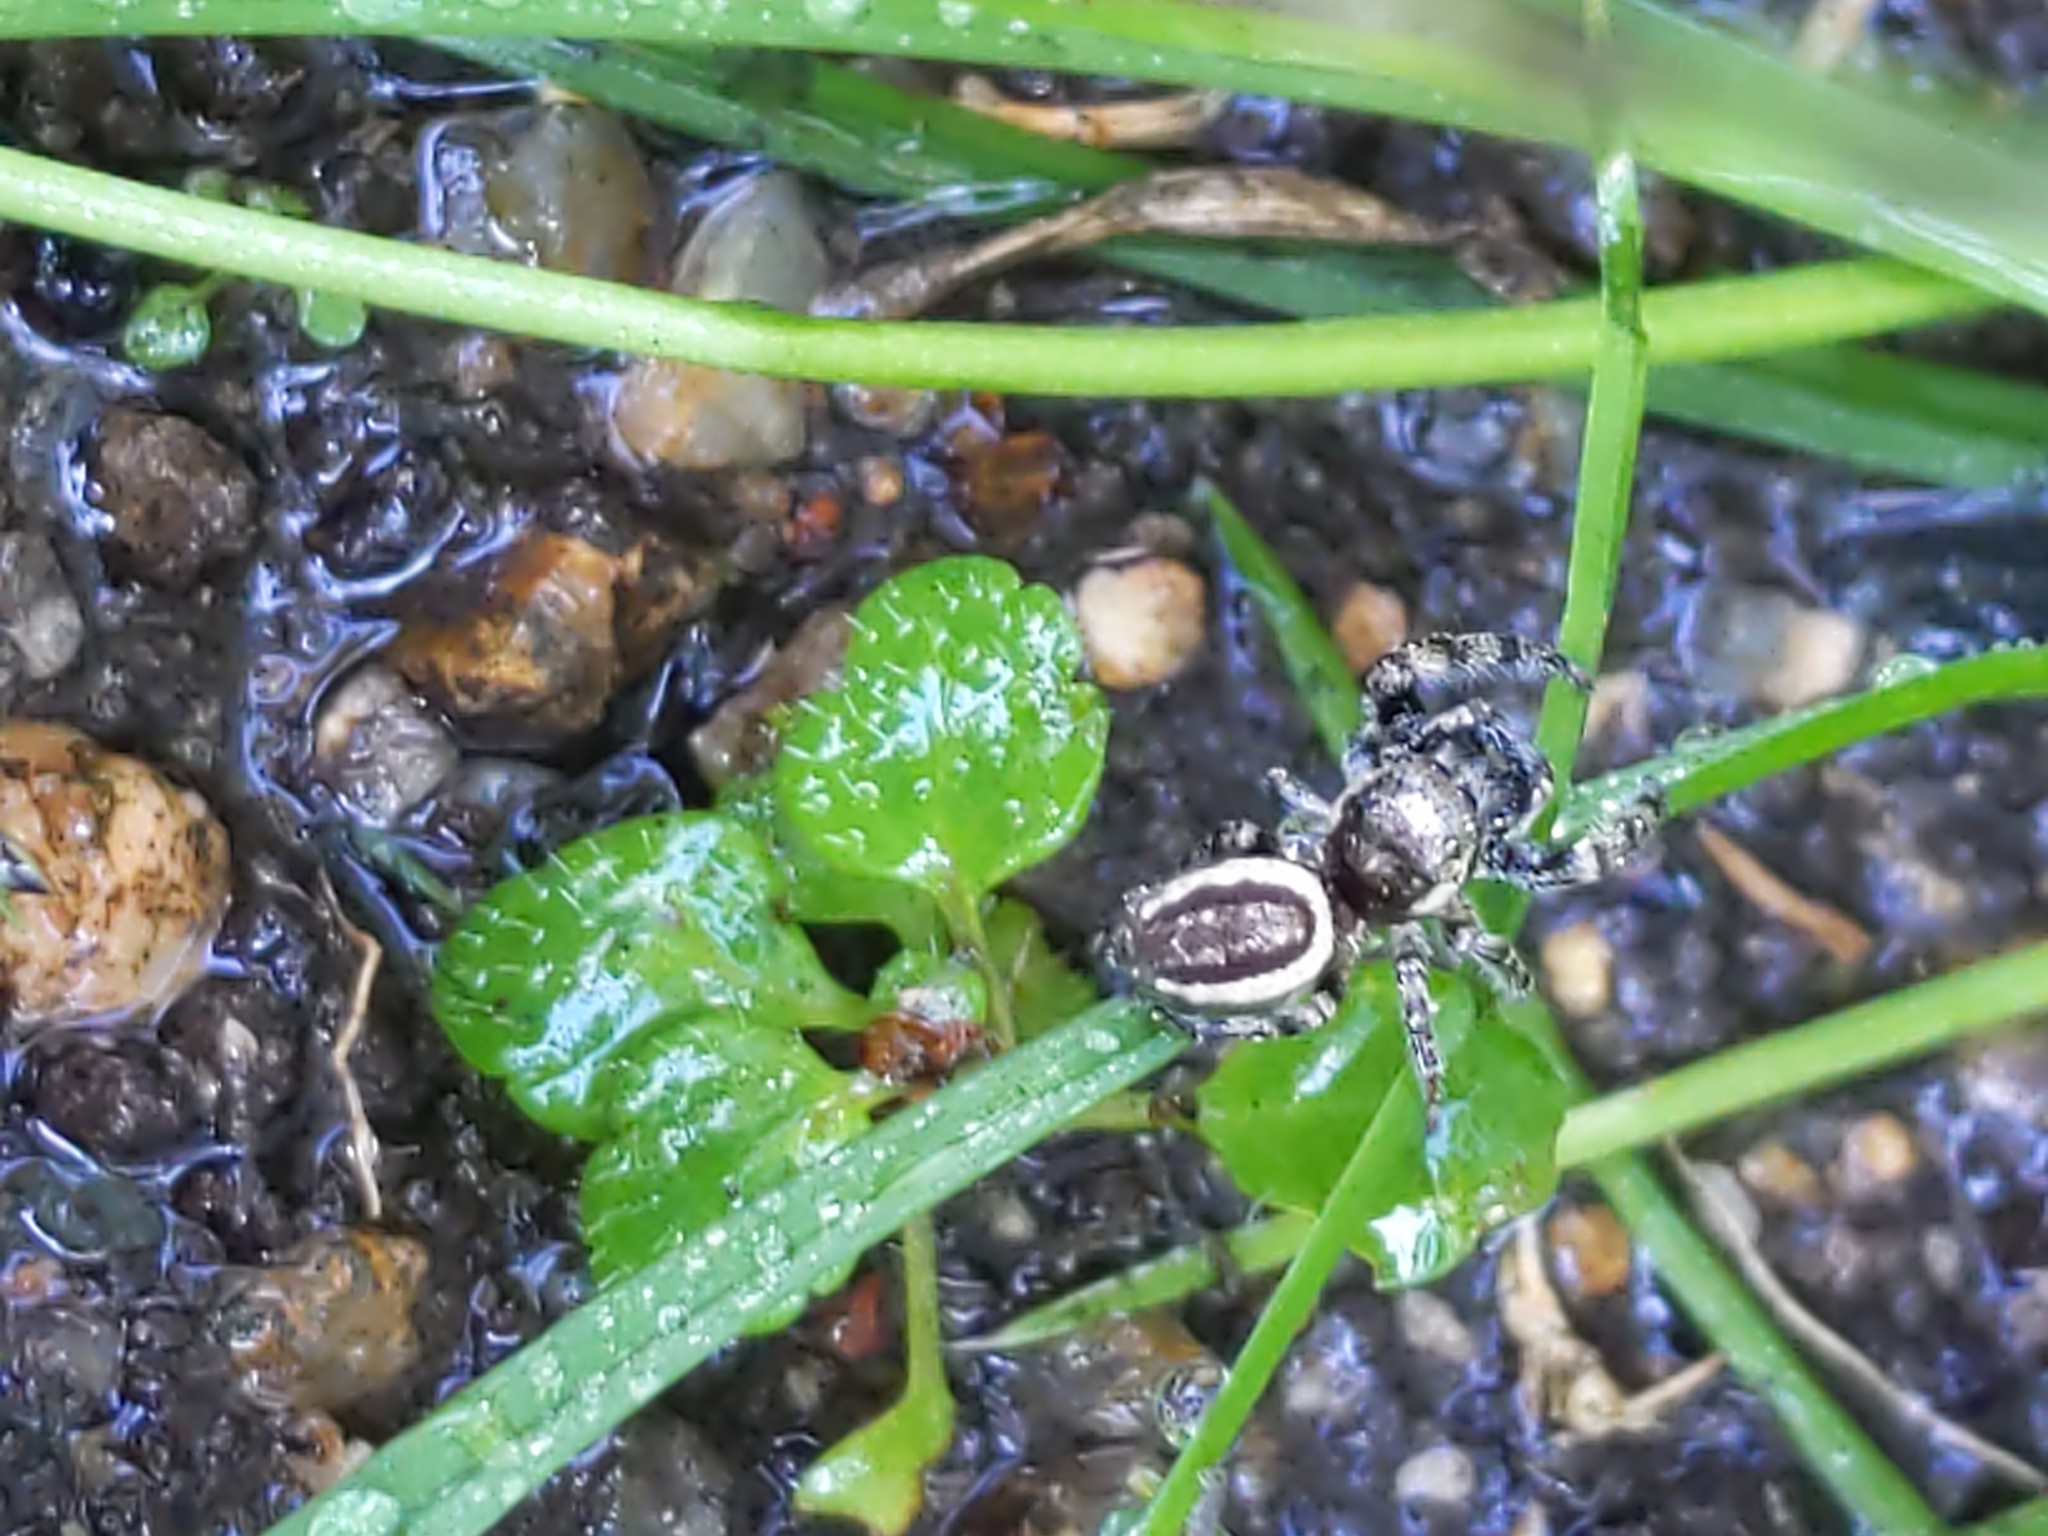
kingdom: Animalia
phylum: Arthropoda
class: Arachnida
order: Araneae
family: Salticidae
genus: Eris
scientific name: Eris militaris
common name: Bronze jumper
